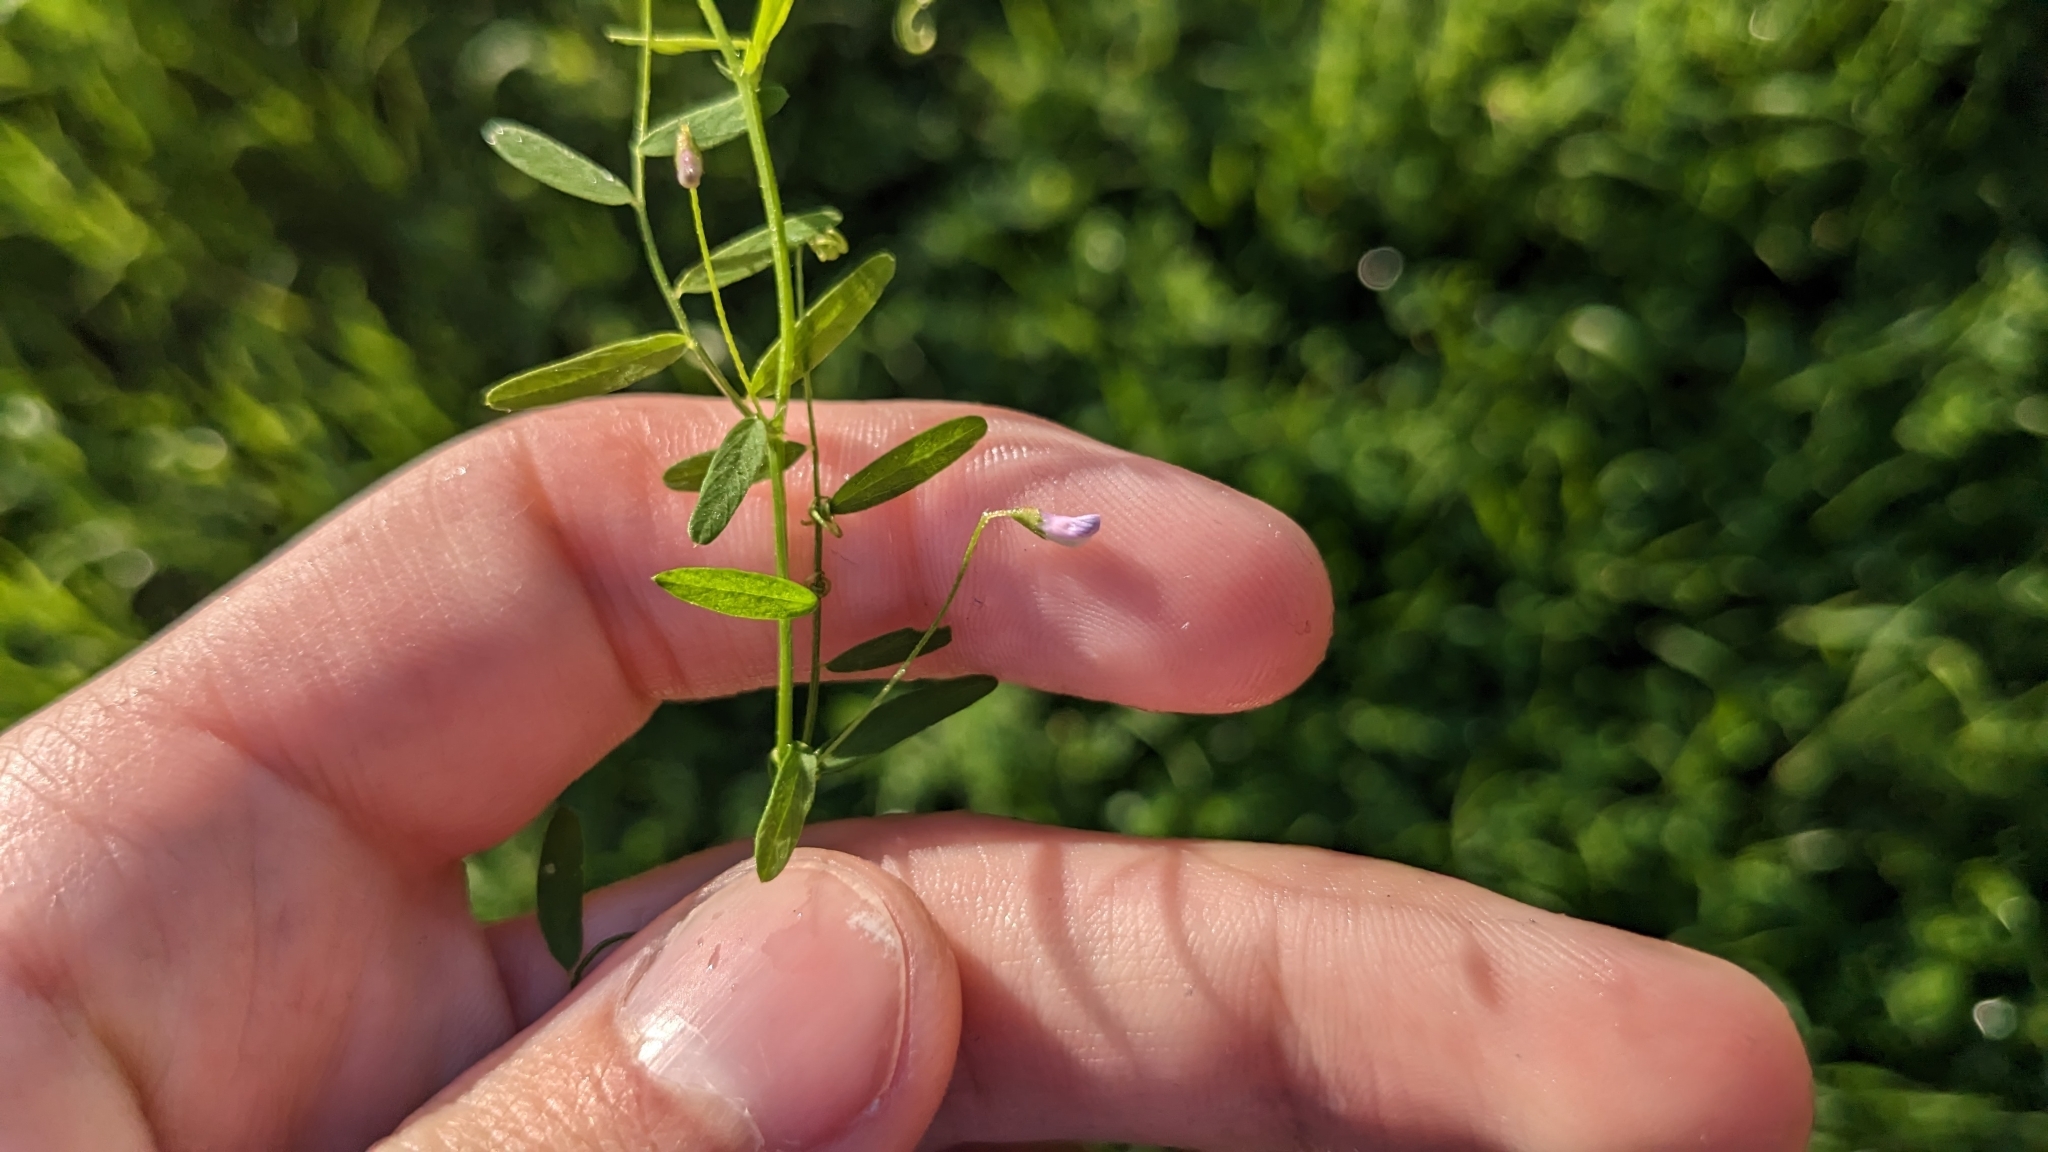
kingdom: Plantae
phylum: Tracheophyta
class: Magnoliopsida
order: Fabales
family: Fabaceae
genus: Vicia
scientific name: Vicia tetrasperma
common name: Smooth tare
